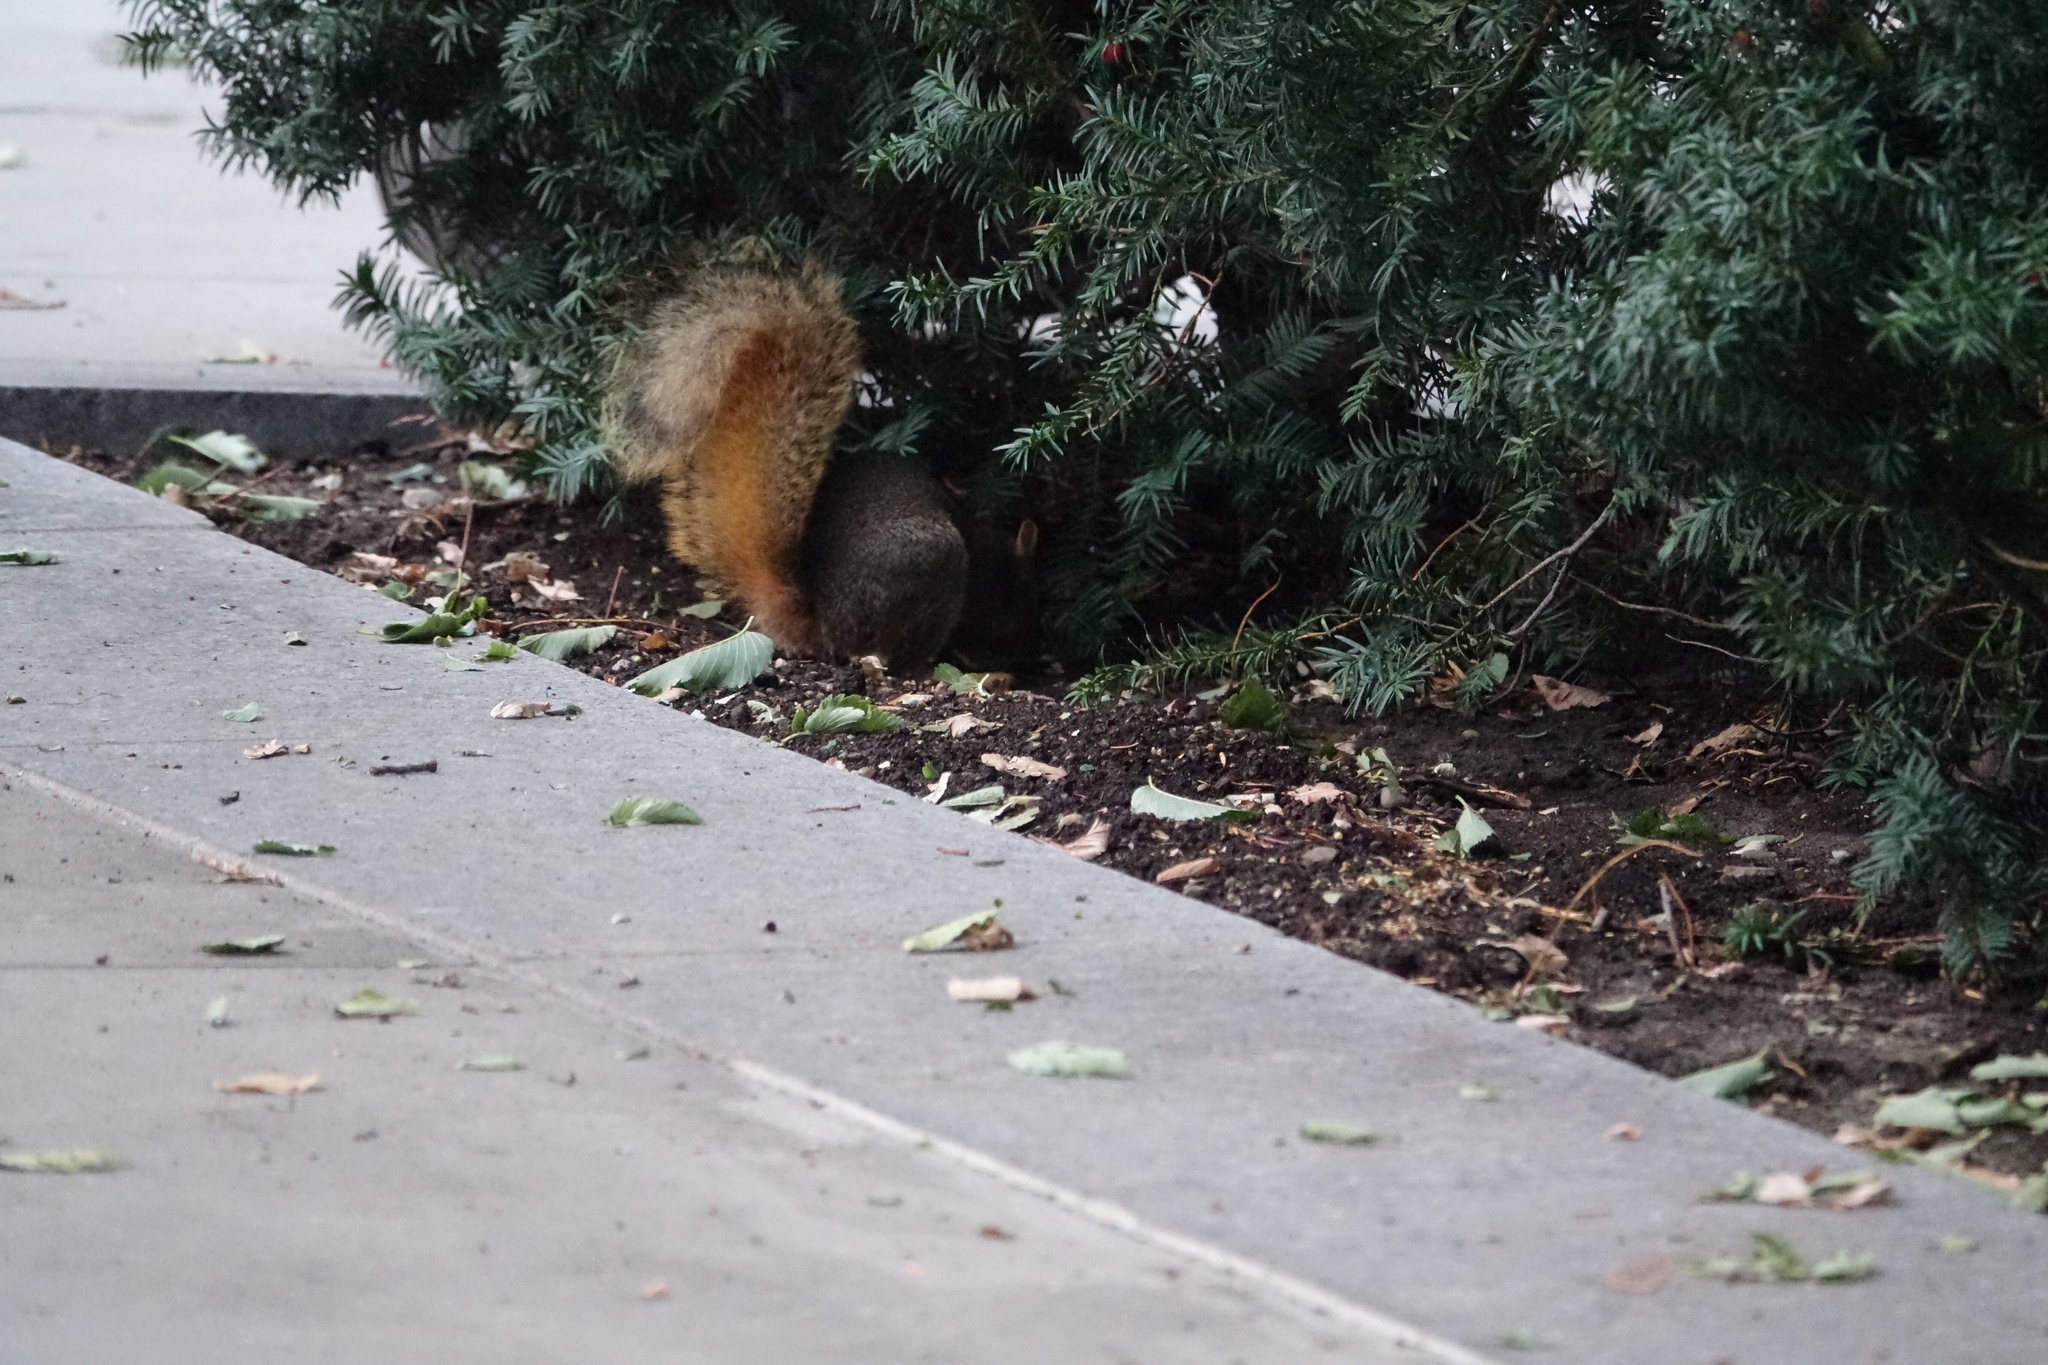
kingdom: Animalia
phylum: Chordata
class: Mammalia
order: Rodentia
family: Sciuridae
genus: Sciurus
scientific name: Sciurus niger
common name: Fox squirrel
